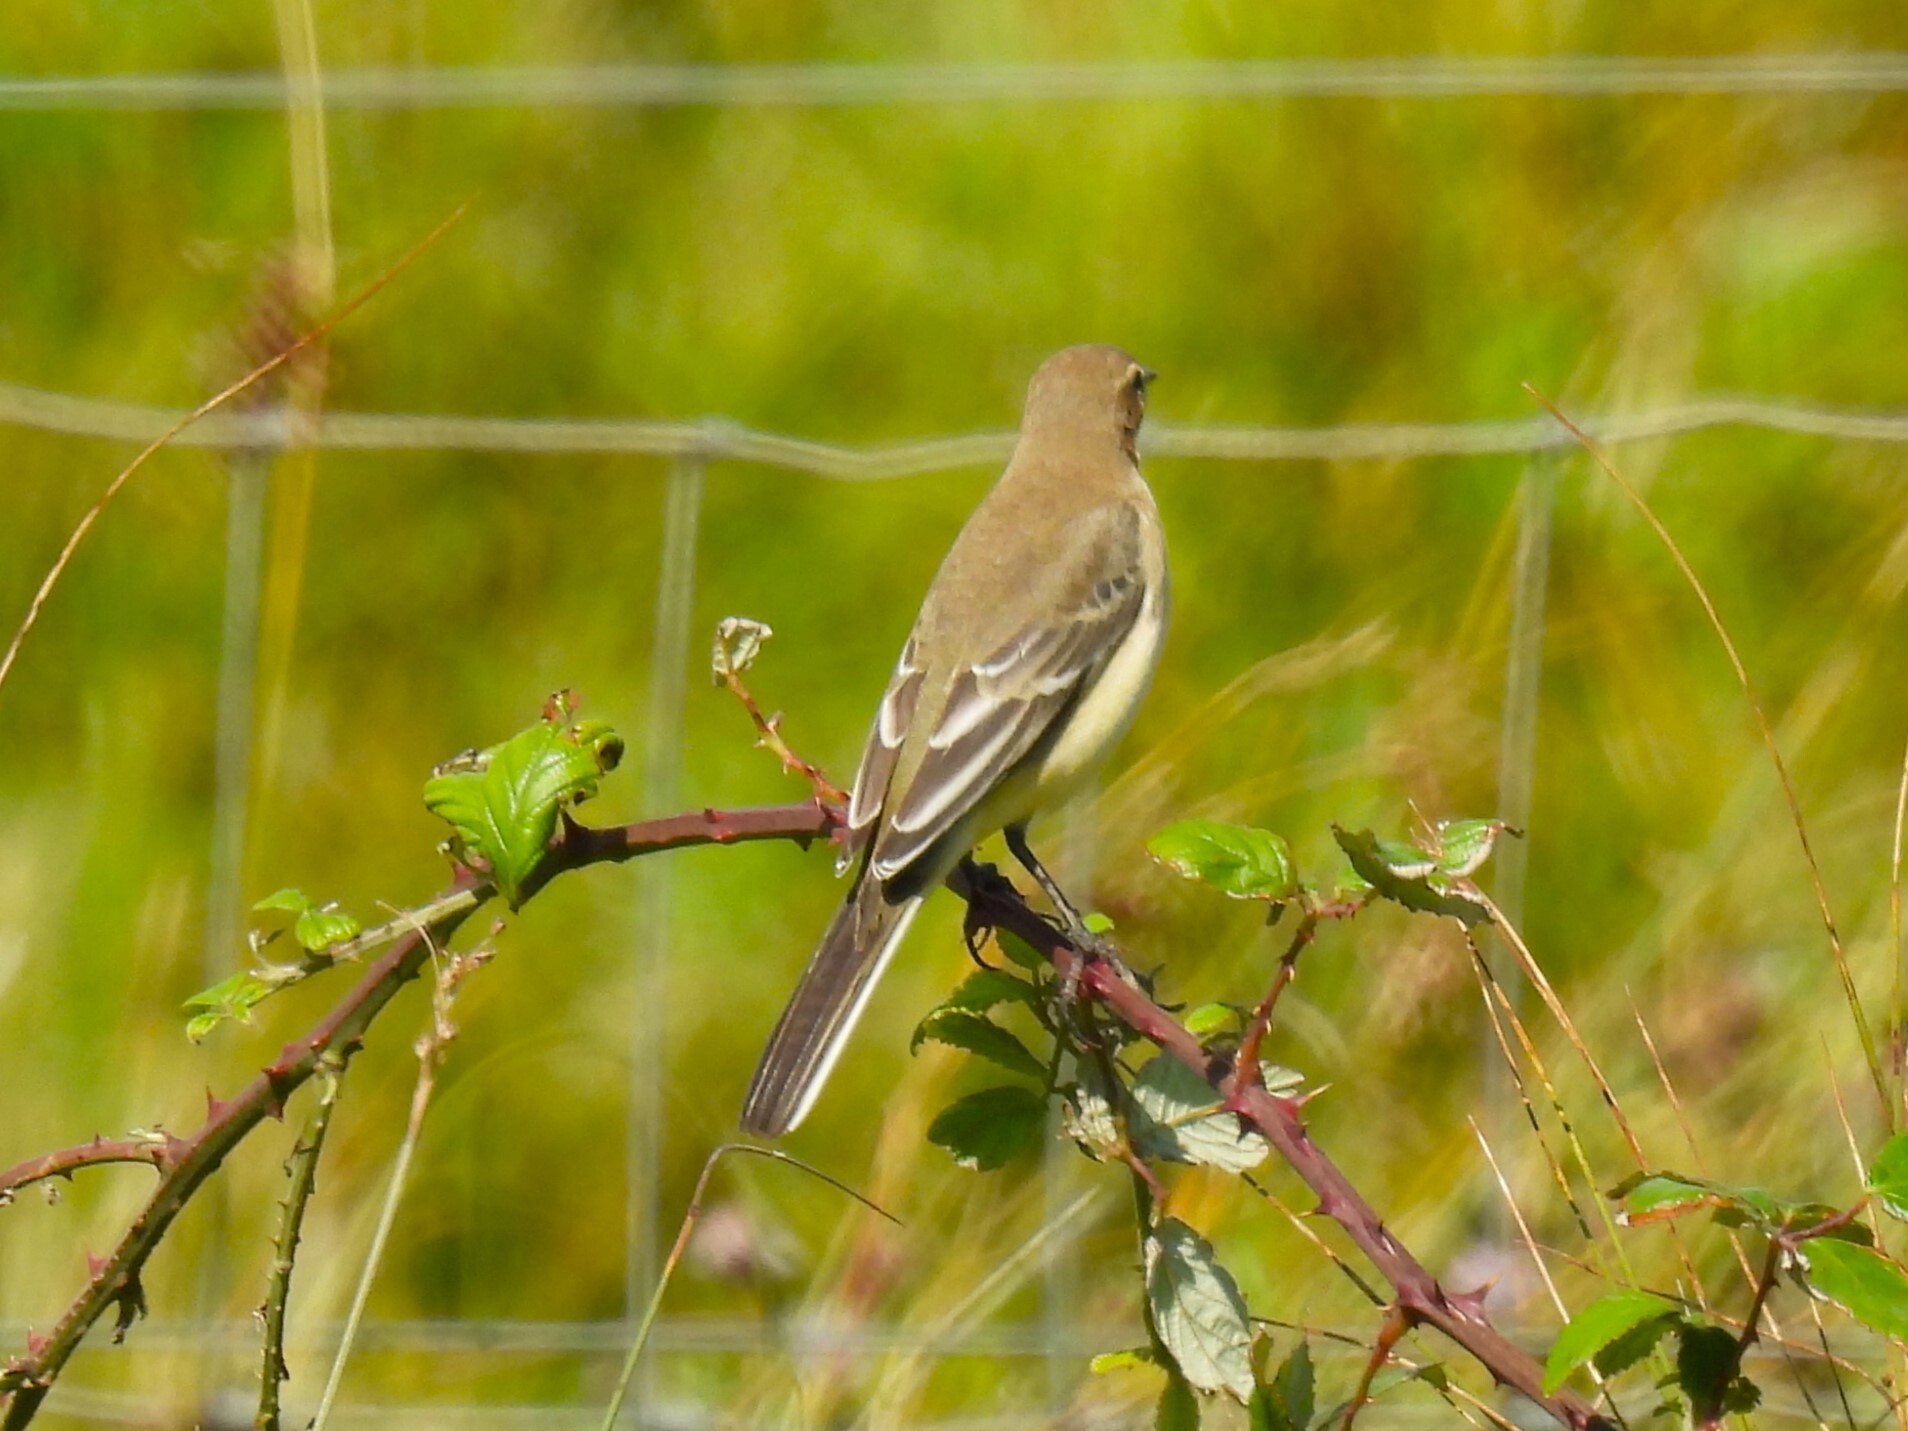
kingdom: Animalia
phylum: Chordata
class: Aves
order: Passeriformes
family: Motacillidae
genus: Motacilla
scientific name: Motacilla flava
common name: Western yellow wagtail
